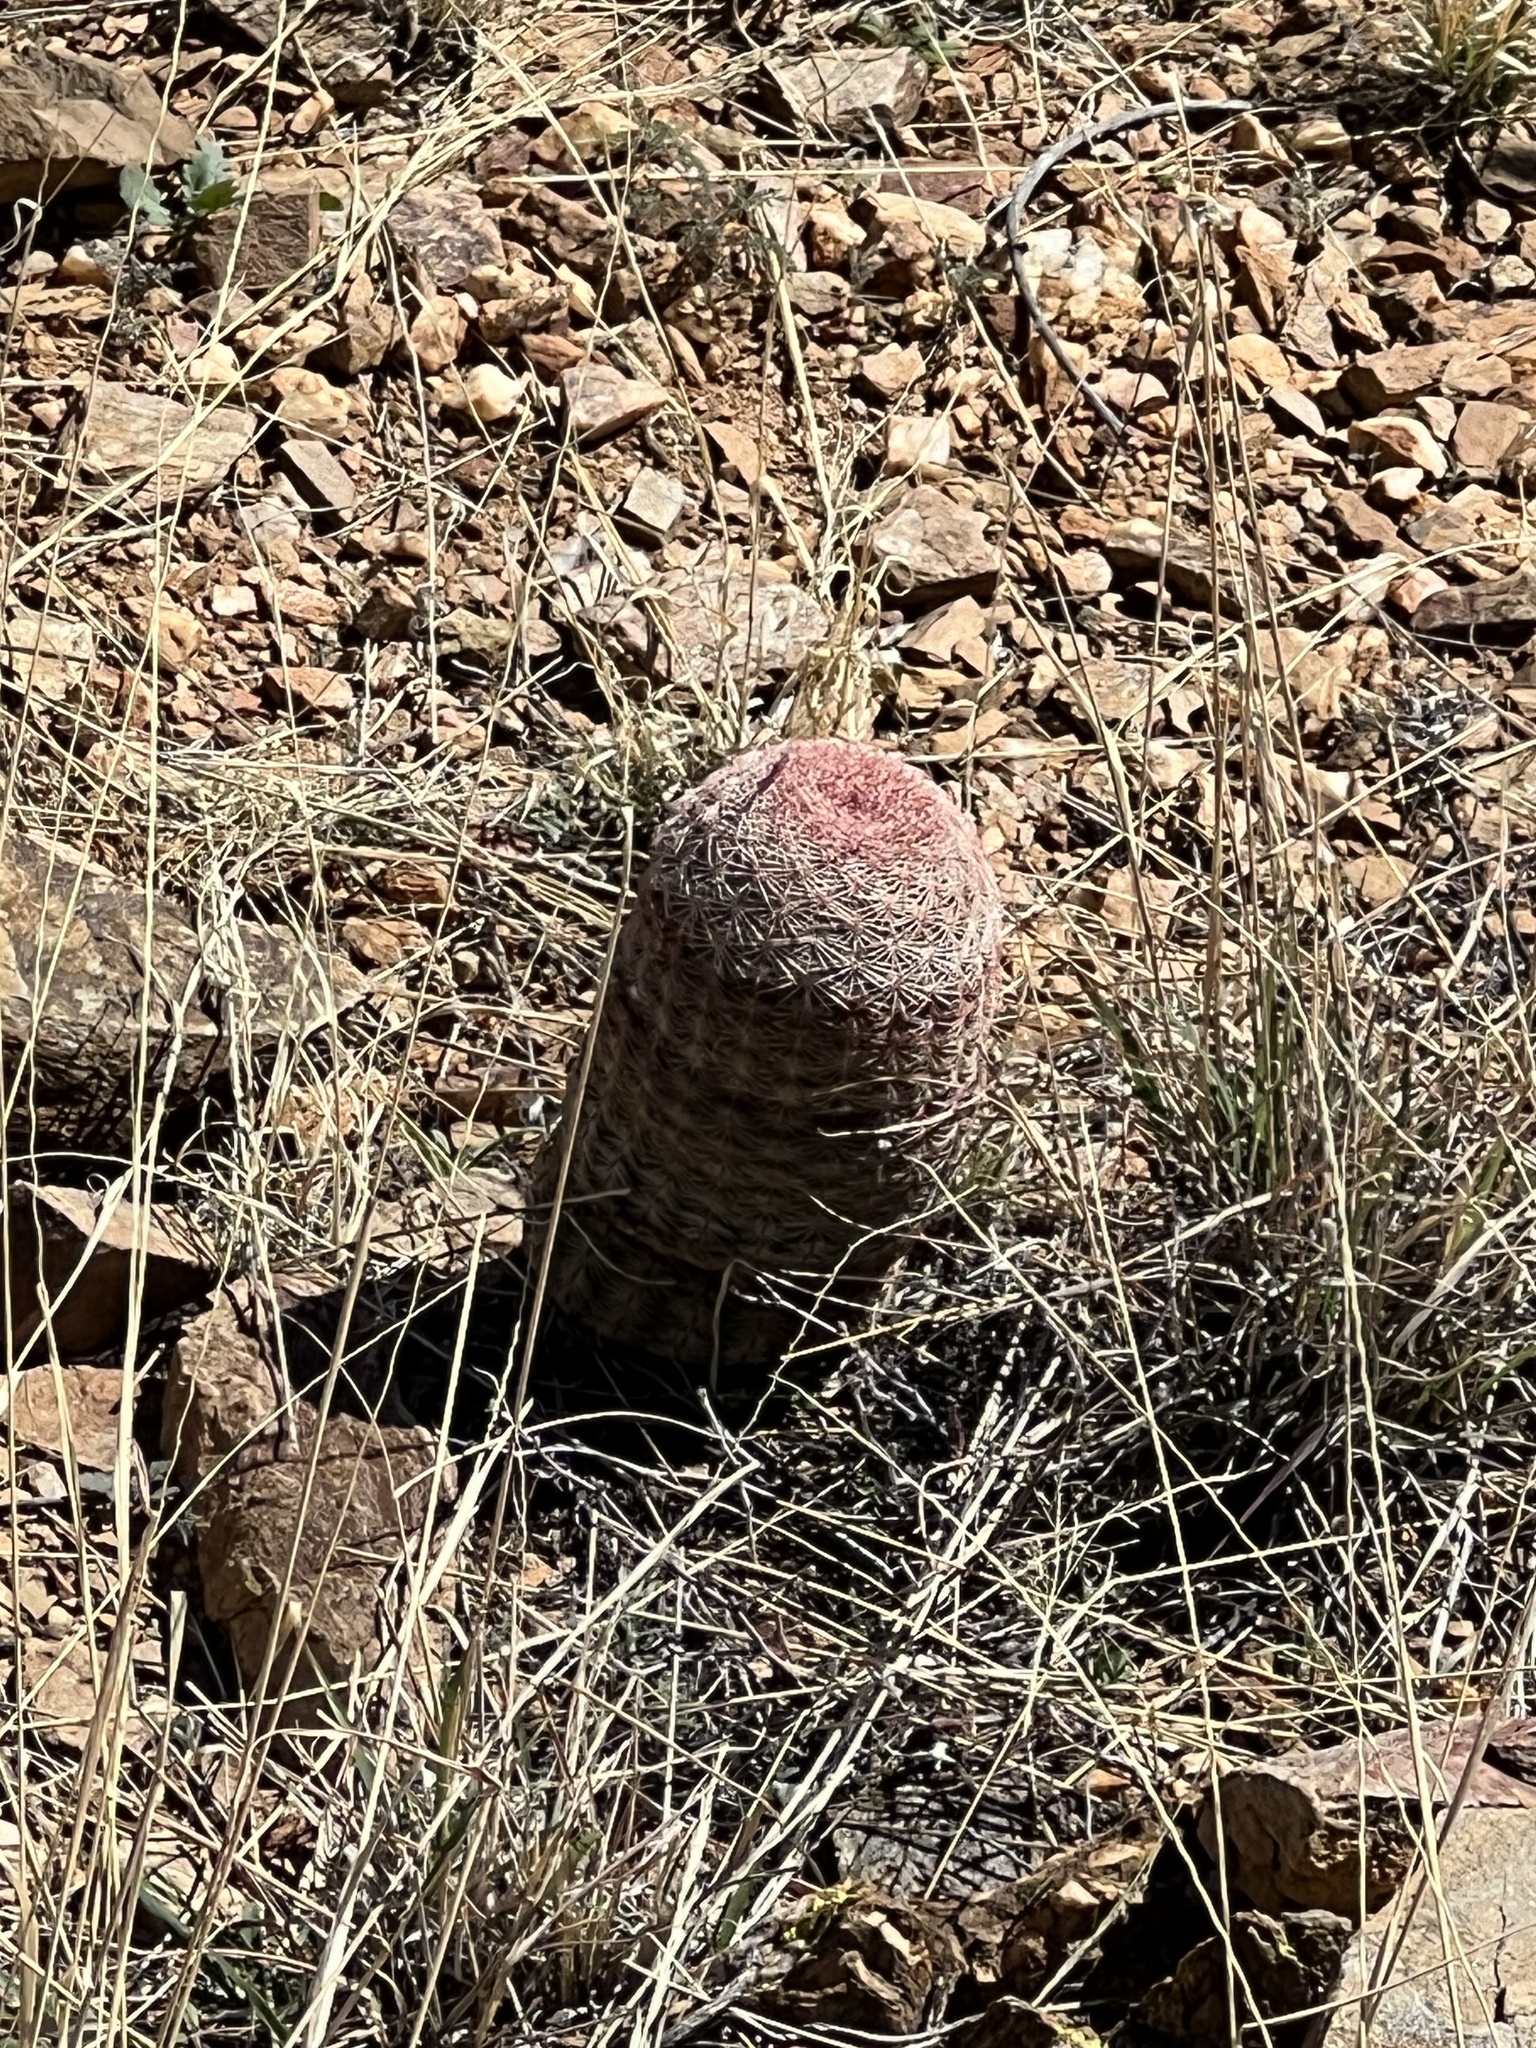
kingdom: Plantae
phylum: Tracheophyta
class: Magnoliopsida
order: Caryophyllales
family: Cactaceae
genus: Echinocereus
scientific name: Echinocereus rigidissimus
